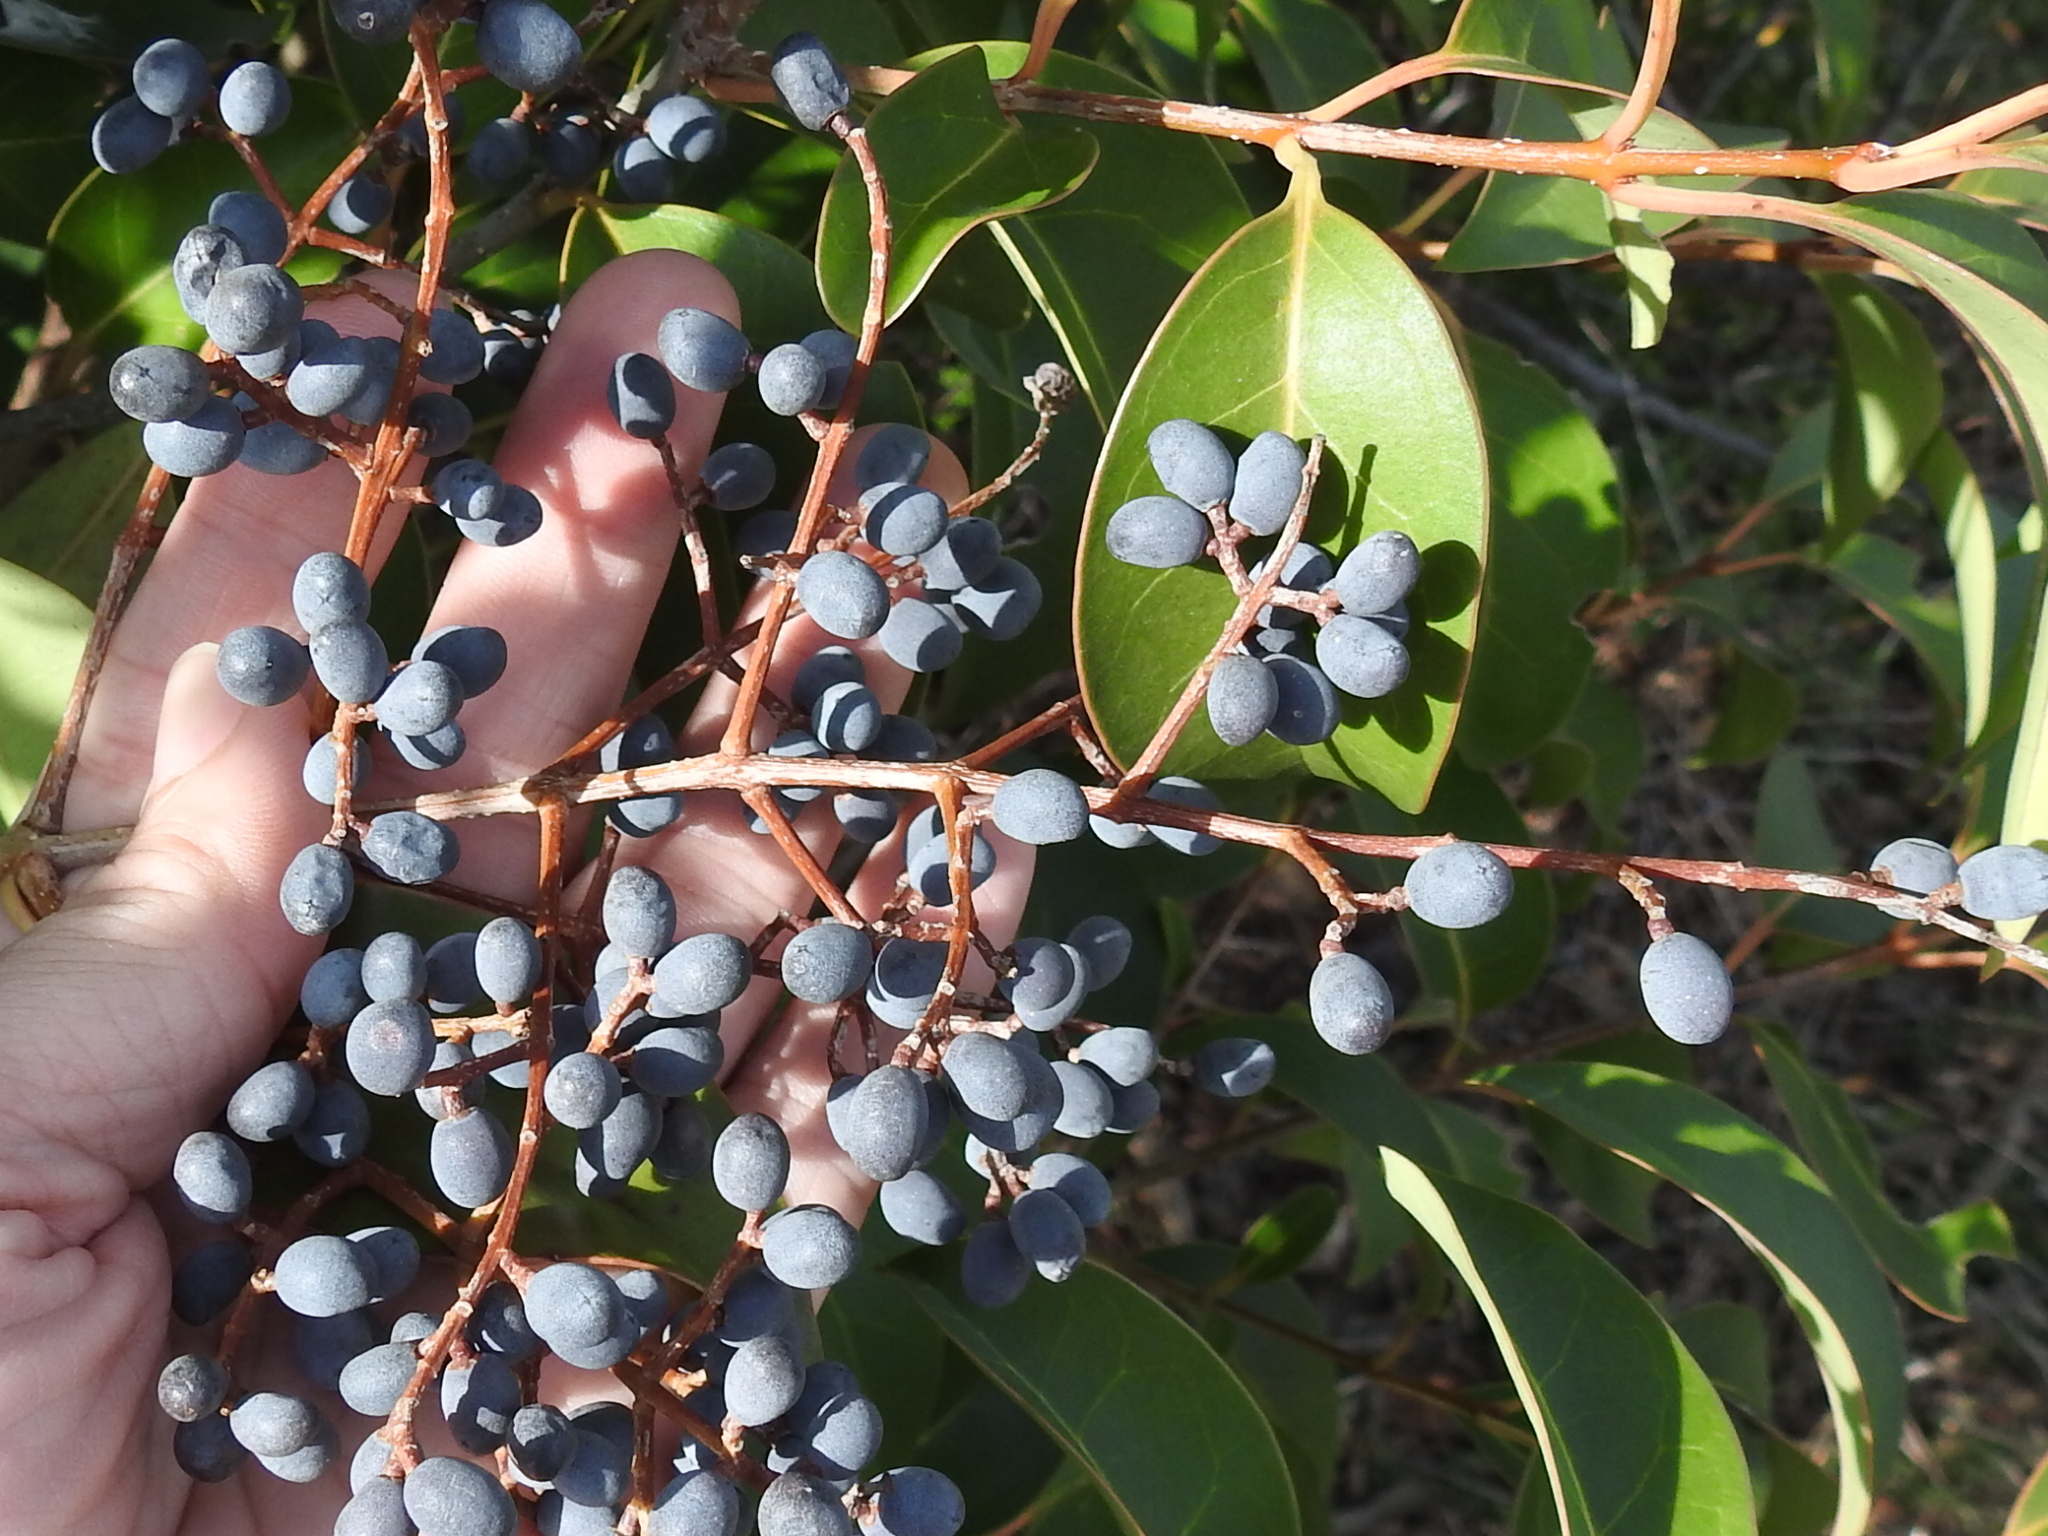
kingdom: Plantae
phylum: Tracheophyta
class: Magnoliopsida
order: Lamiales
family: Oleaceae
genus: Ligustrum
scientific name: Ligustrum lucidum
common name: Glossy privet
